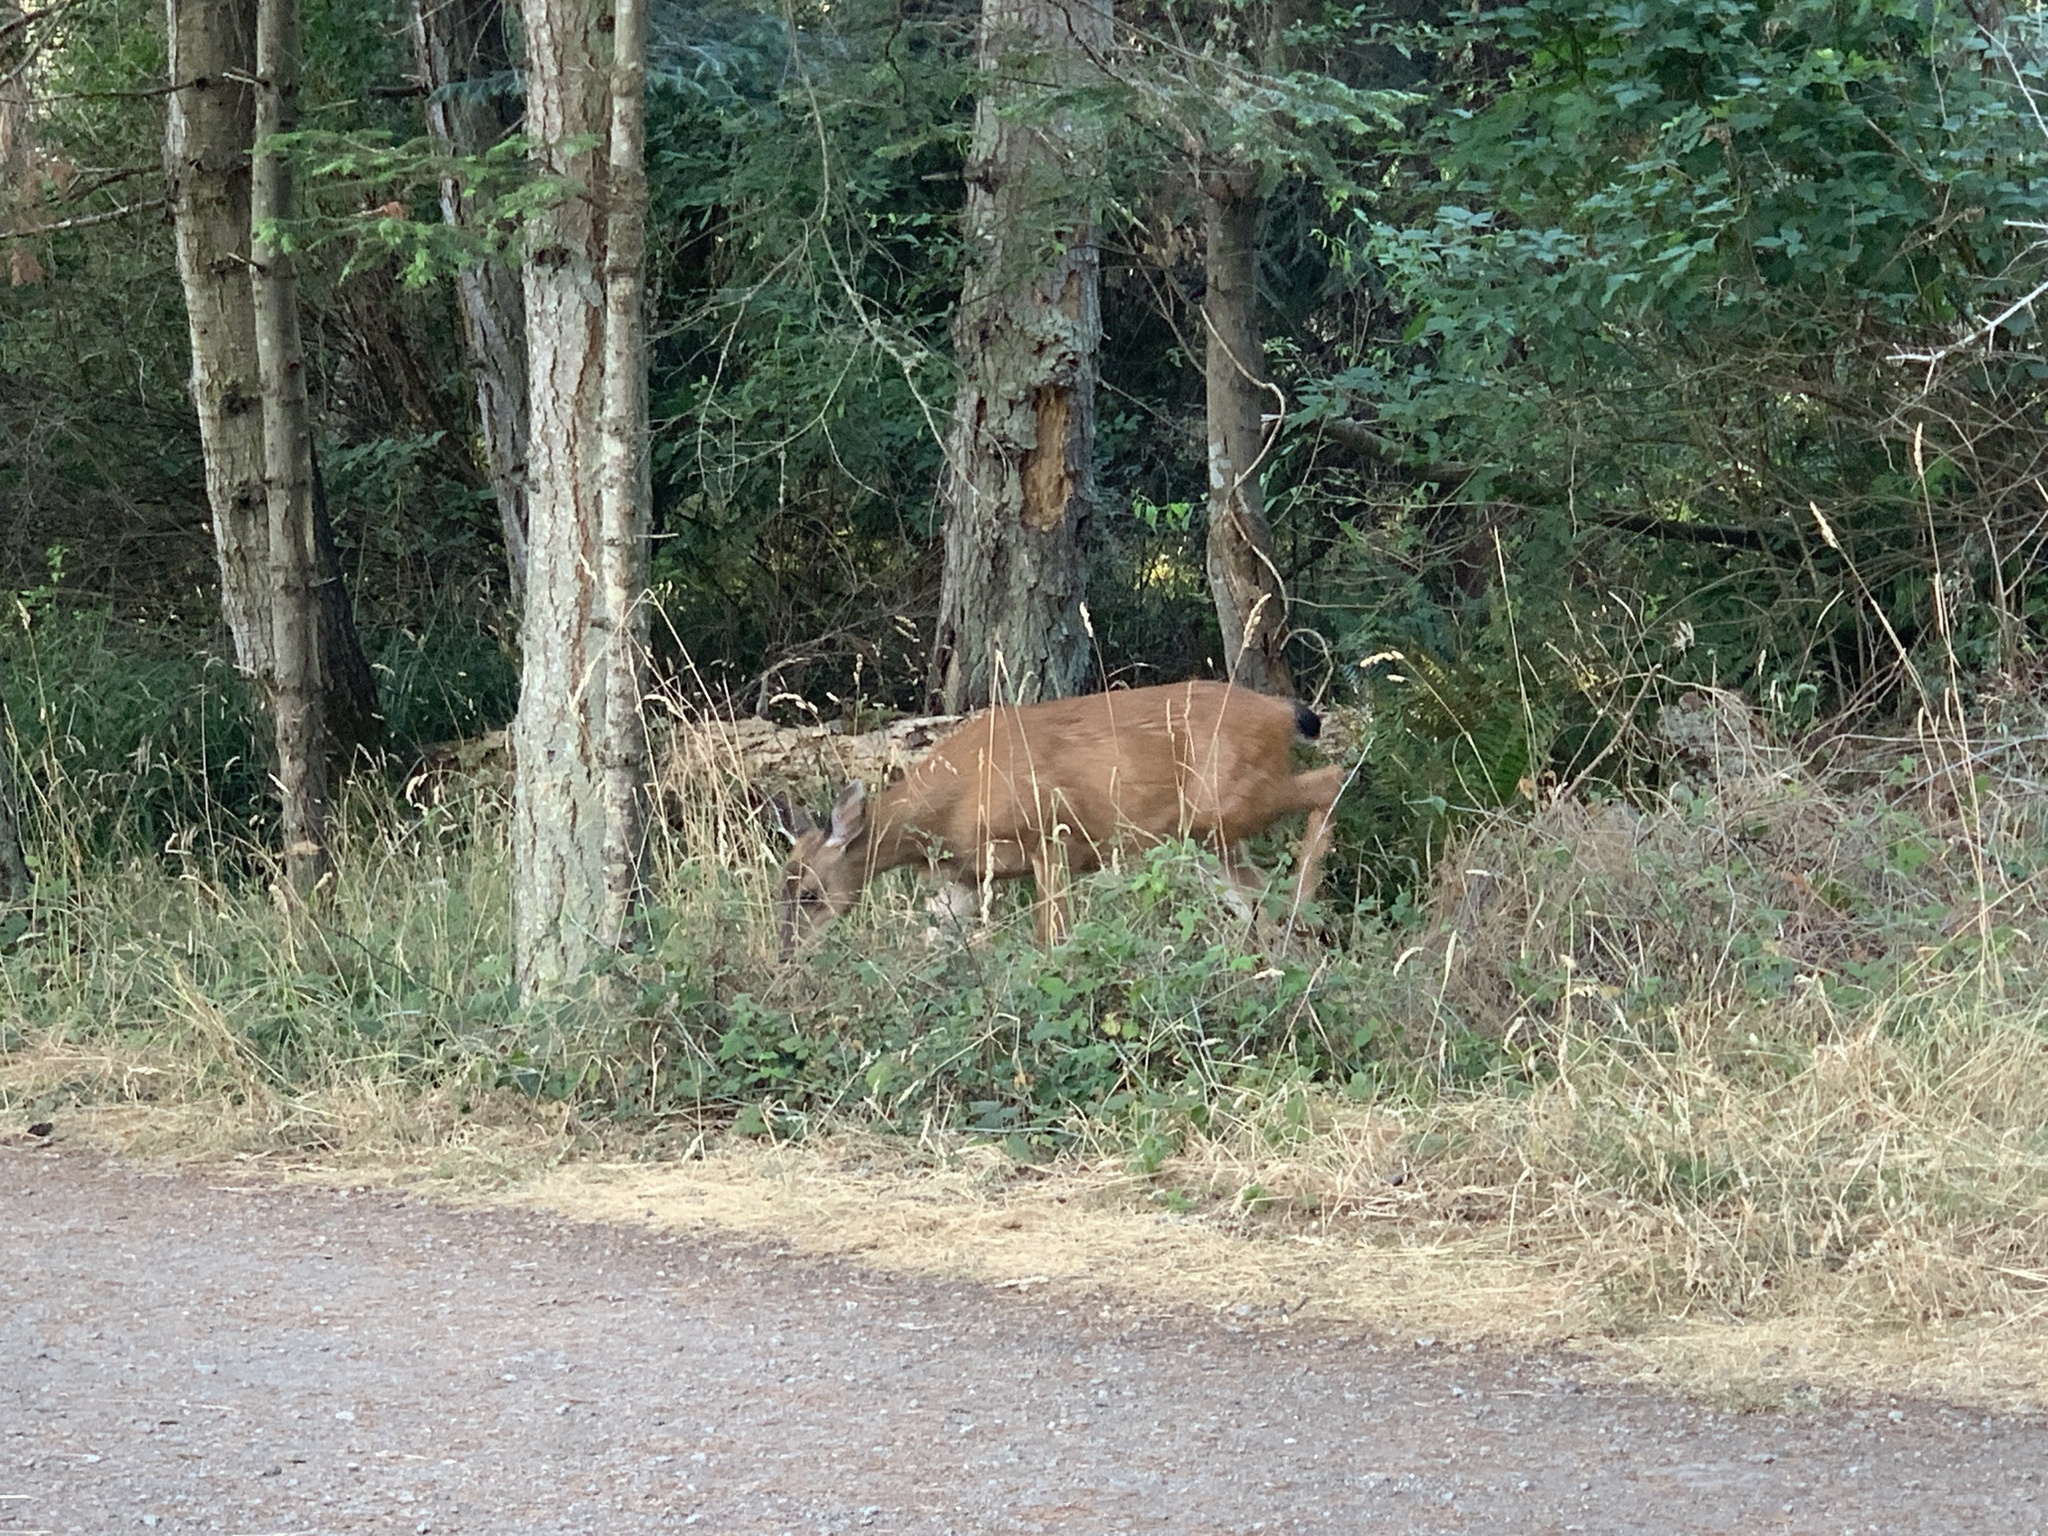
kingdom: Animalia
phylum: Chordata
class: Mammalia
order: Artiodactyla
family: Cervidae
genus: Odocoileus
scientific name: Odocoileus hemionus
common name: Mule deer
